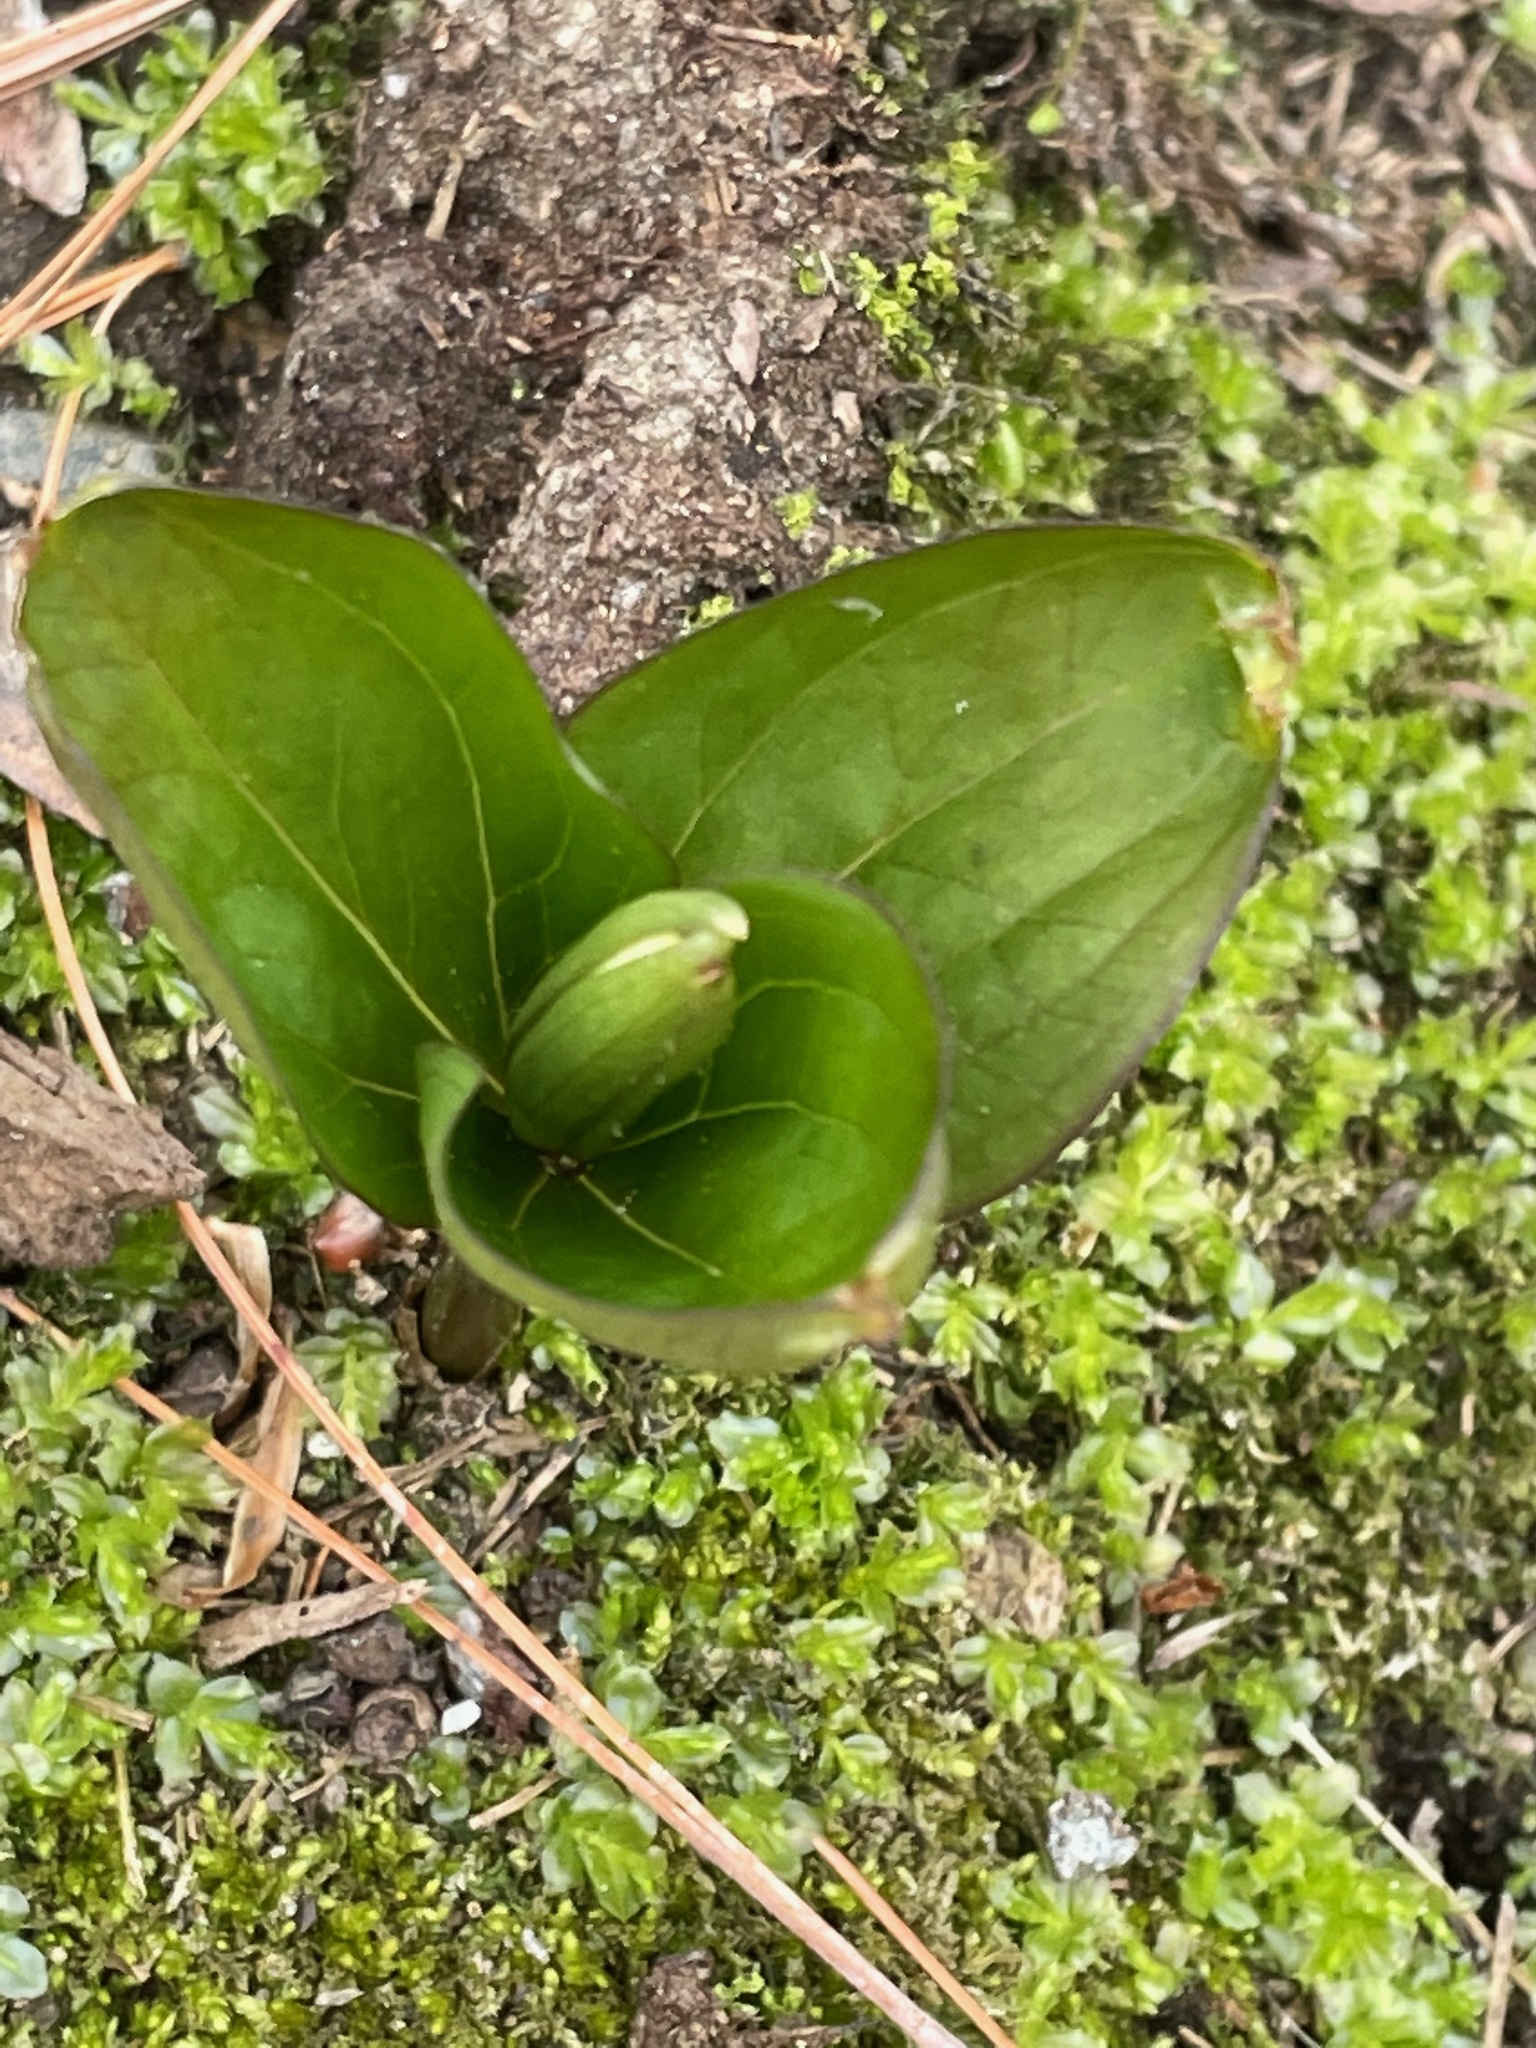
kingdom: Plantae
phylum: Tracheophyta
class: Liliopsida
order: Liliales
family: Melanthiaceae
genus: Trillium
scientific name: Trillium grandiflorum
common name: Great white trillium
